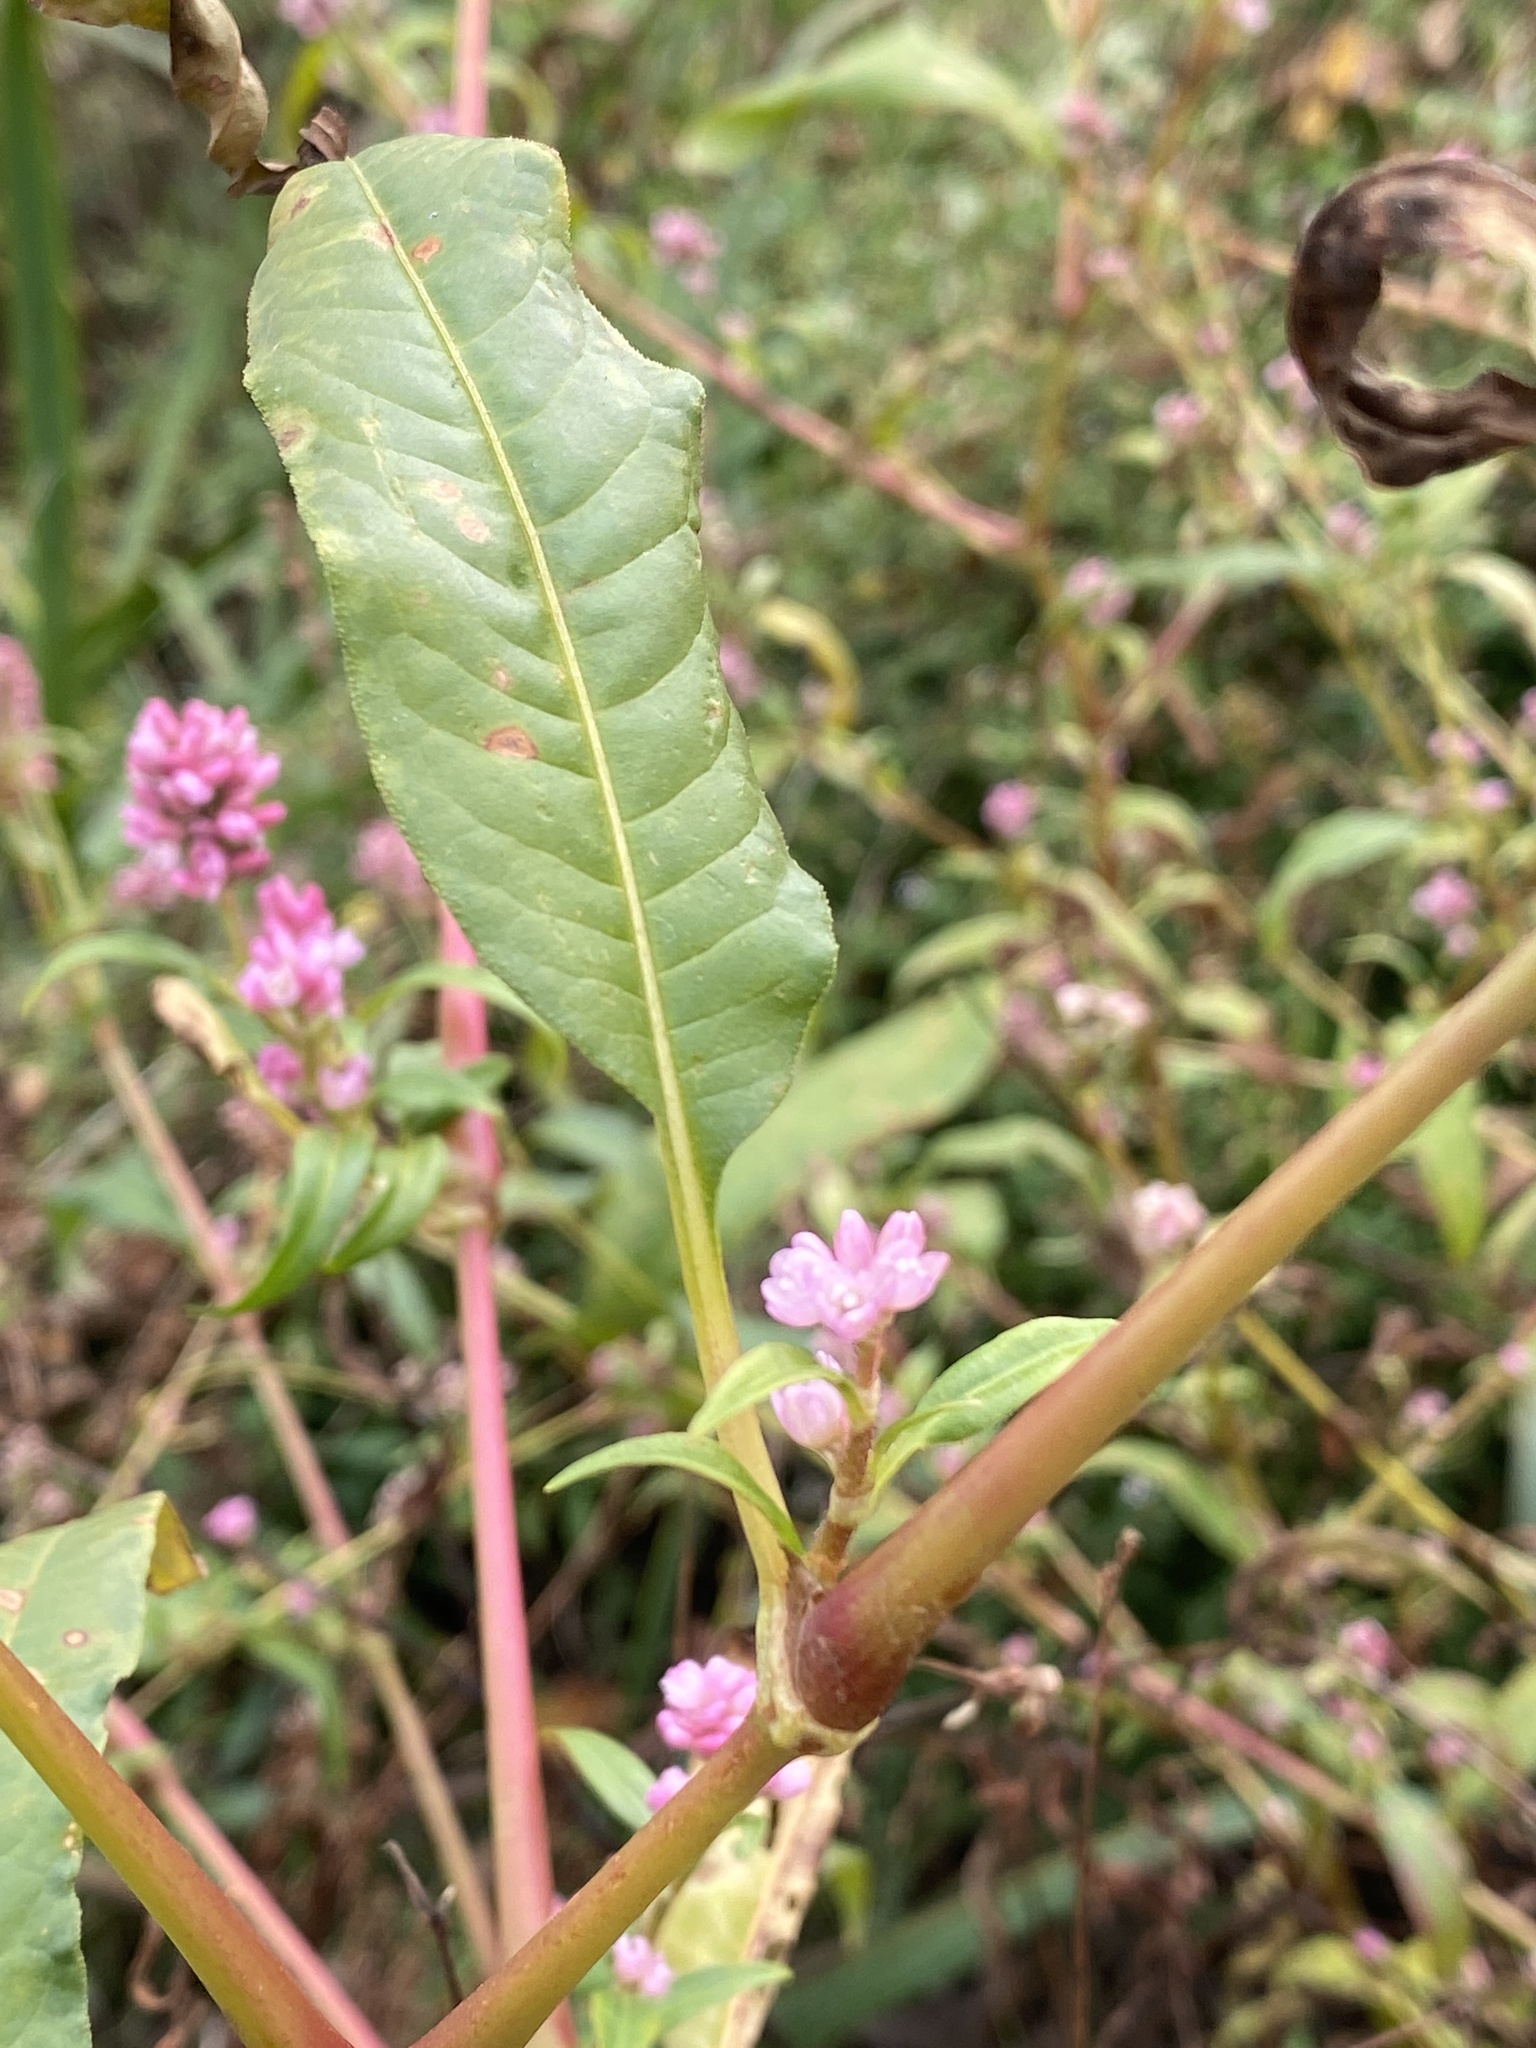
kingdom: Plantae
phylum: Tracheophyta
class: Magnoliopsida
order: Caryophyllales
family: Polygonaceae
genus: Persicaria
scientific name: Persicaria pensylvanica
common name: Pinkweed
